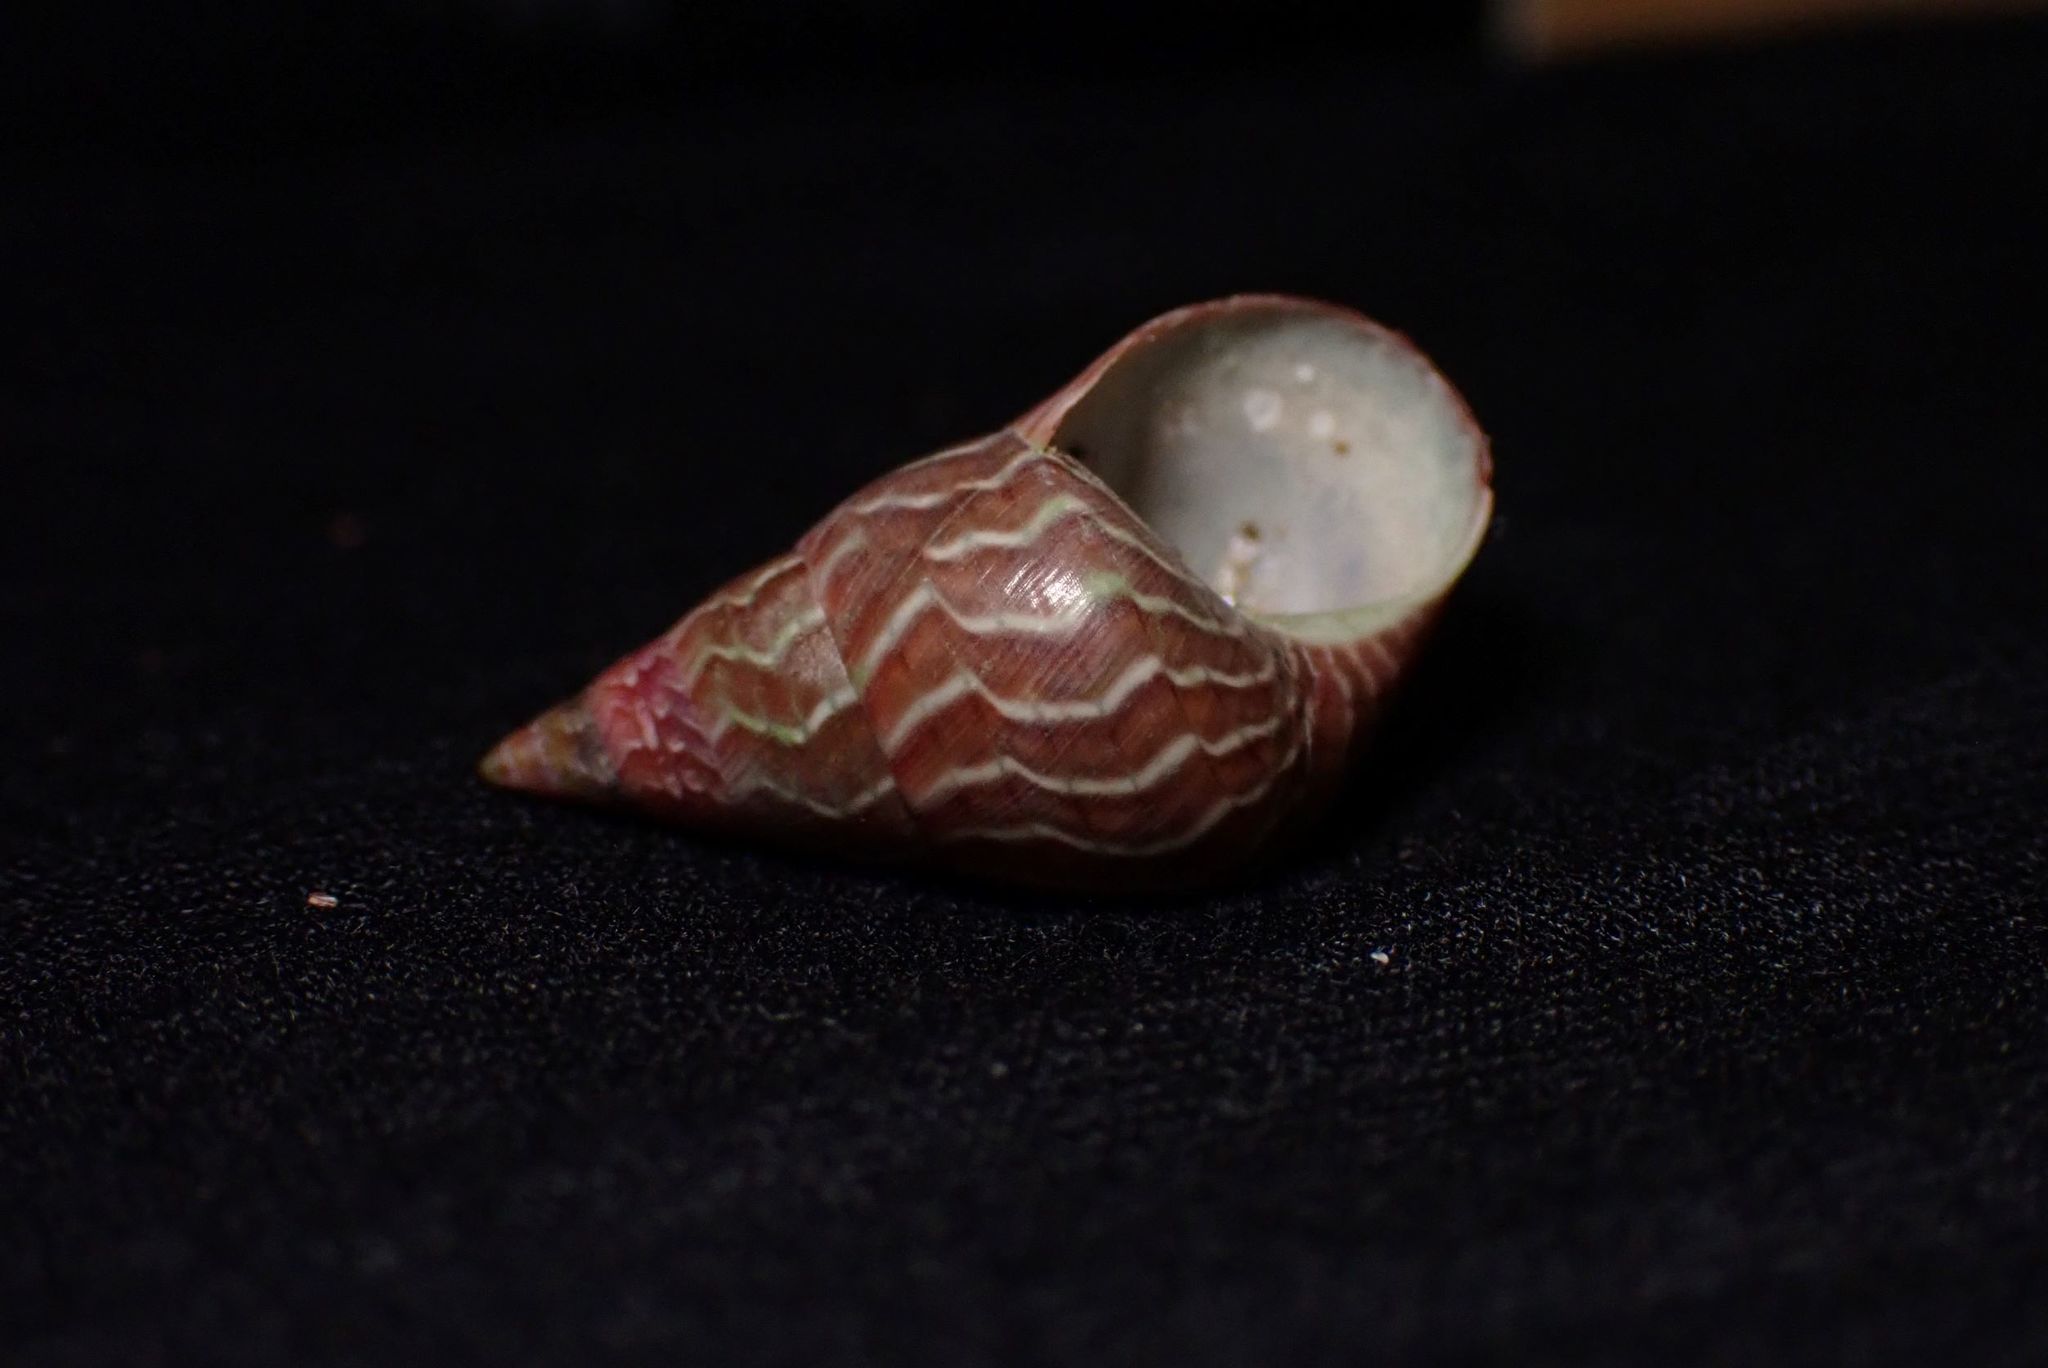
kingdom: Animalia
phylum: Mollusca
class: Gastropoda
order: Trochida
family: Trochidae
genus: Phasianotrochus
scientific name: Phasianotrochus eximius
